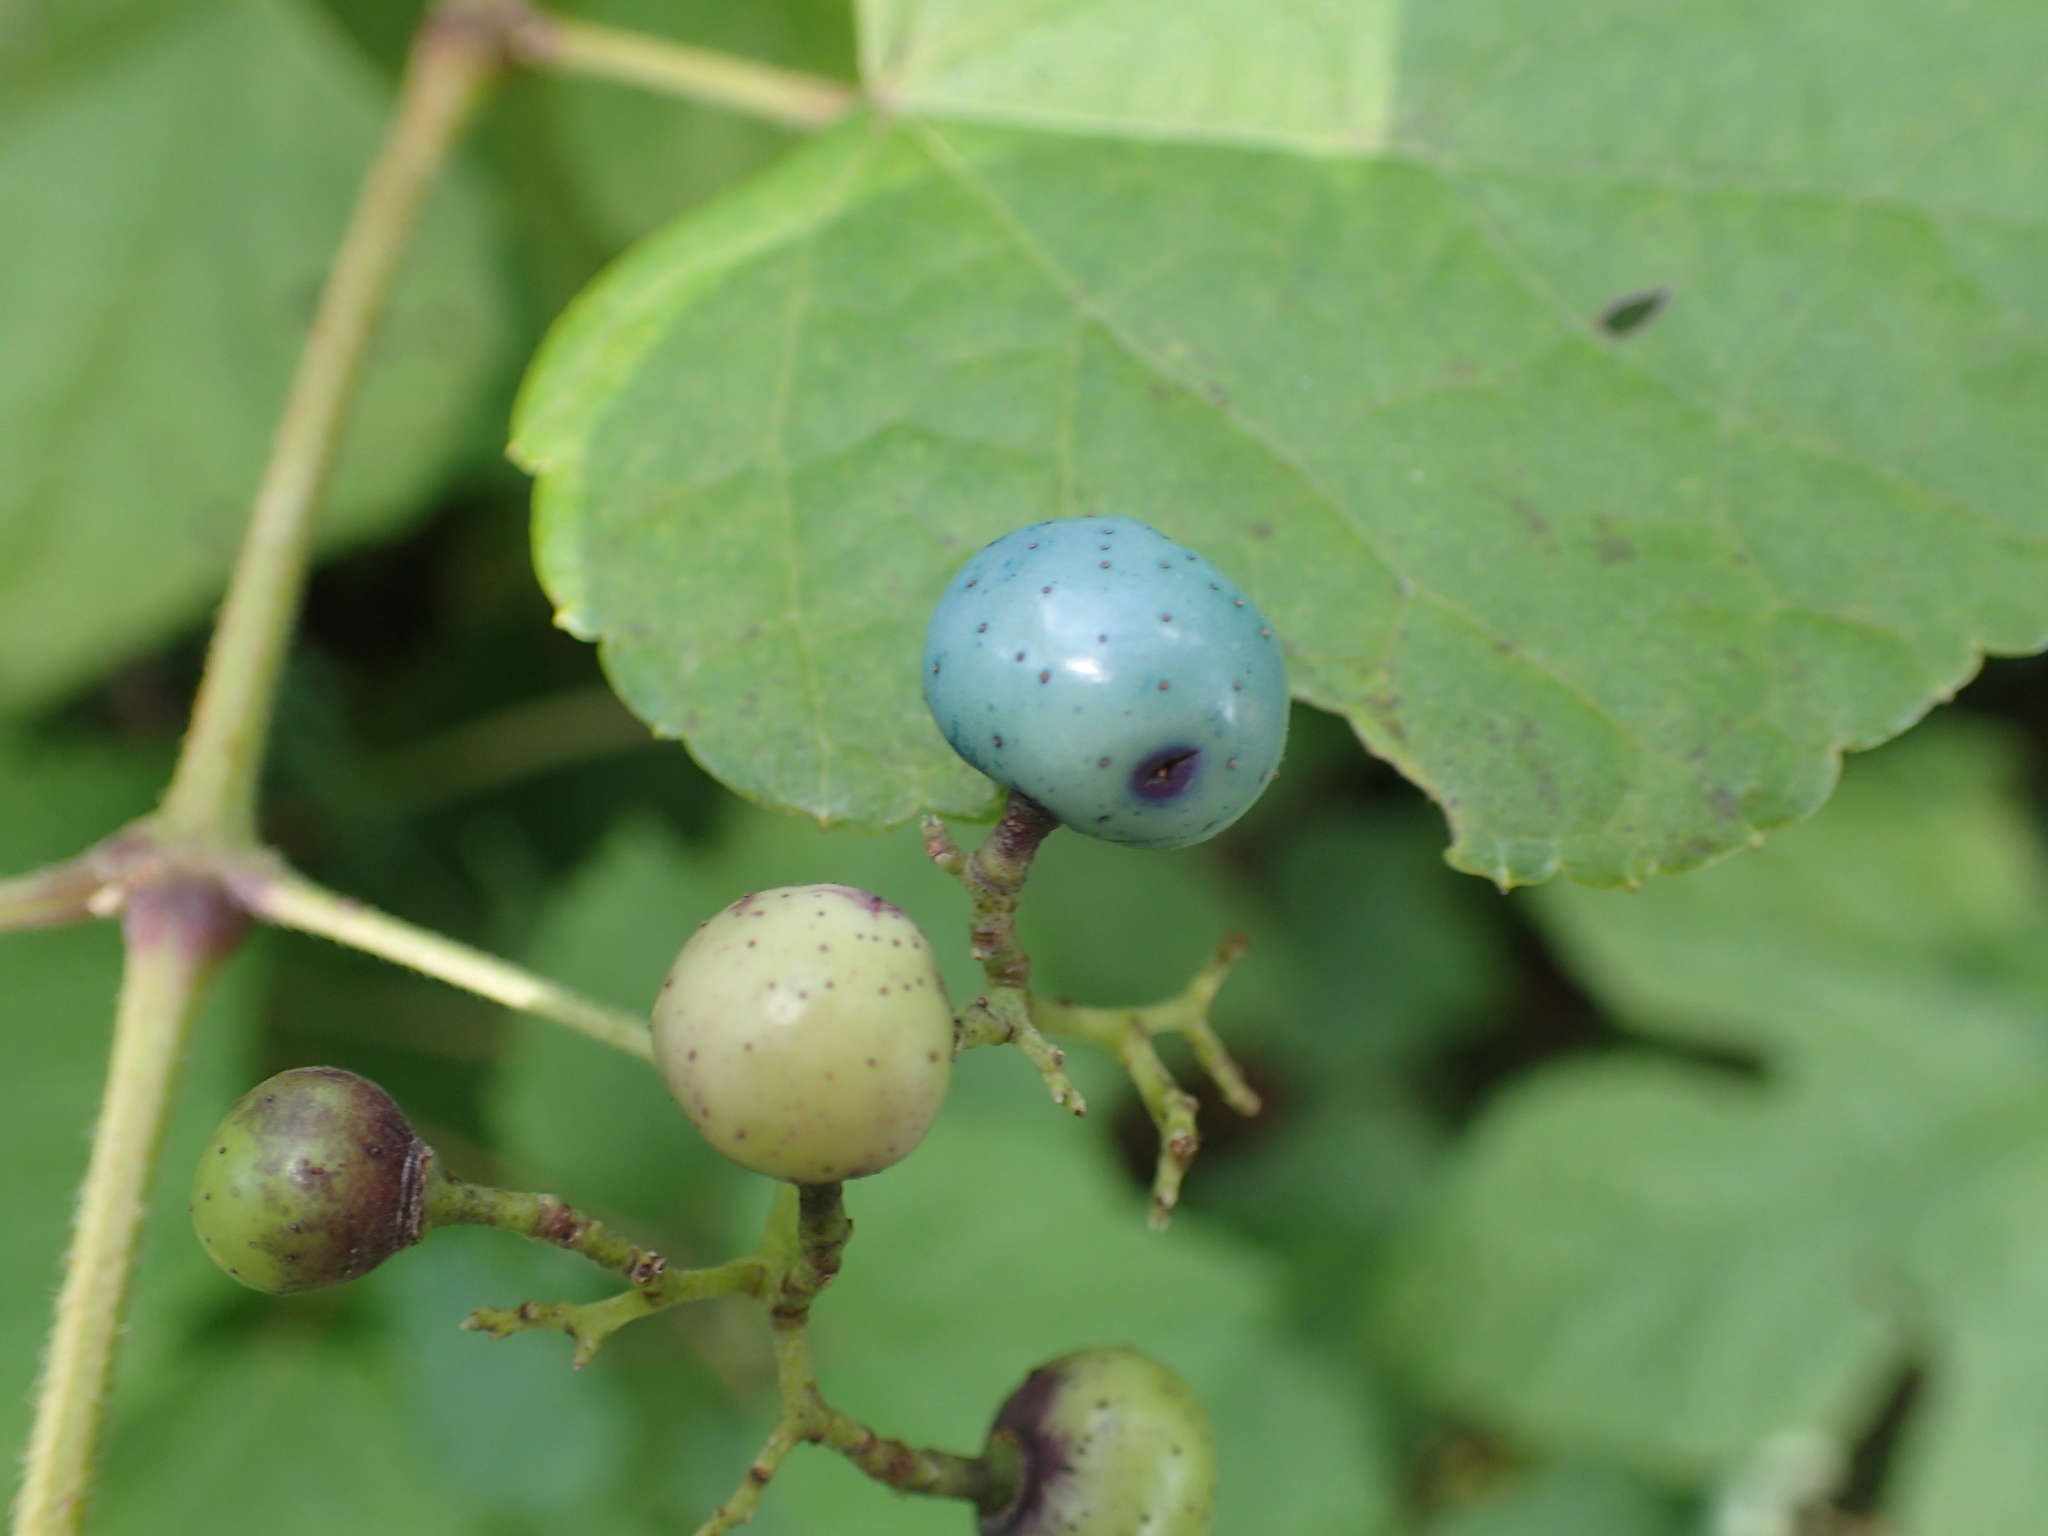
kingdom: Plantae
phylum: Tracheophyta
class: Magnoliopsida
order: Vitales
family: Vitaceae
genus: Ampelopsis
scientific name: Ampelopsis glandulosa
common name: Amur peppervine
